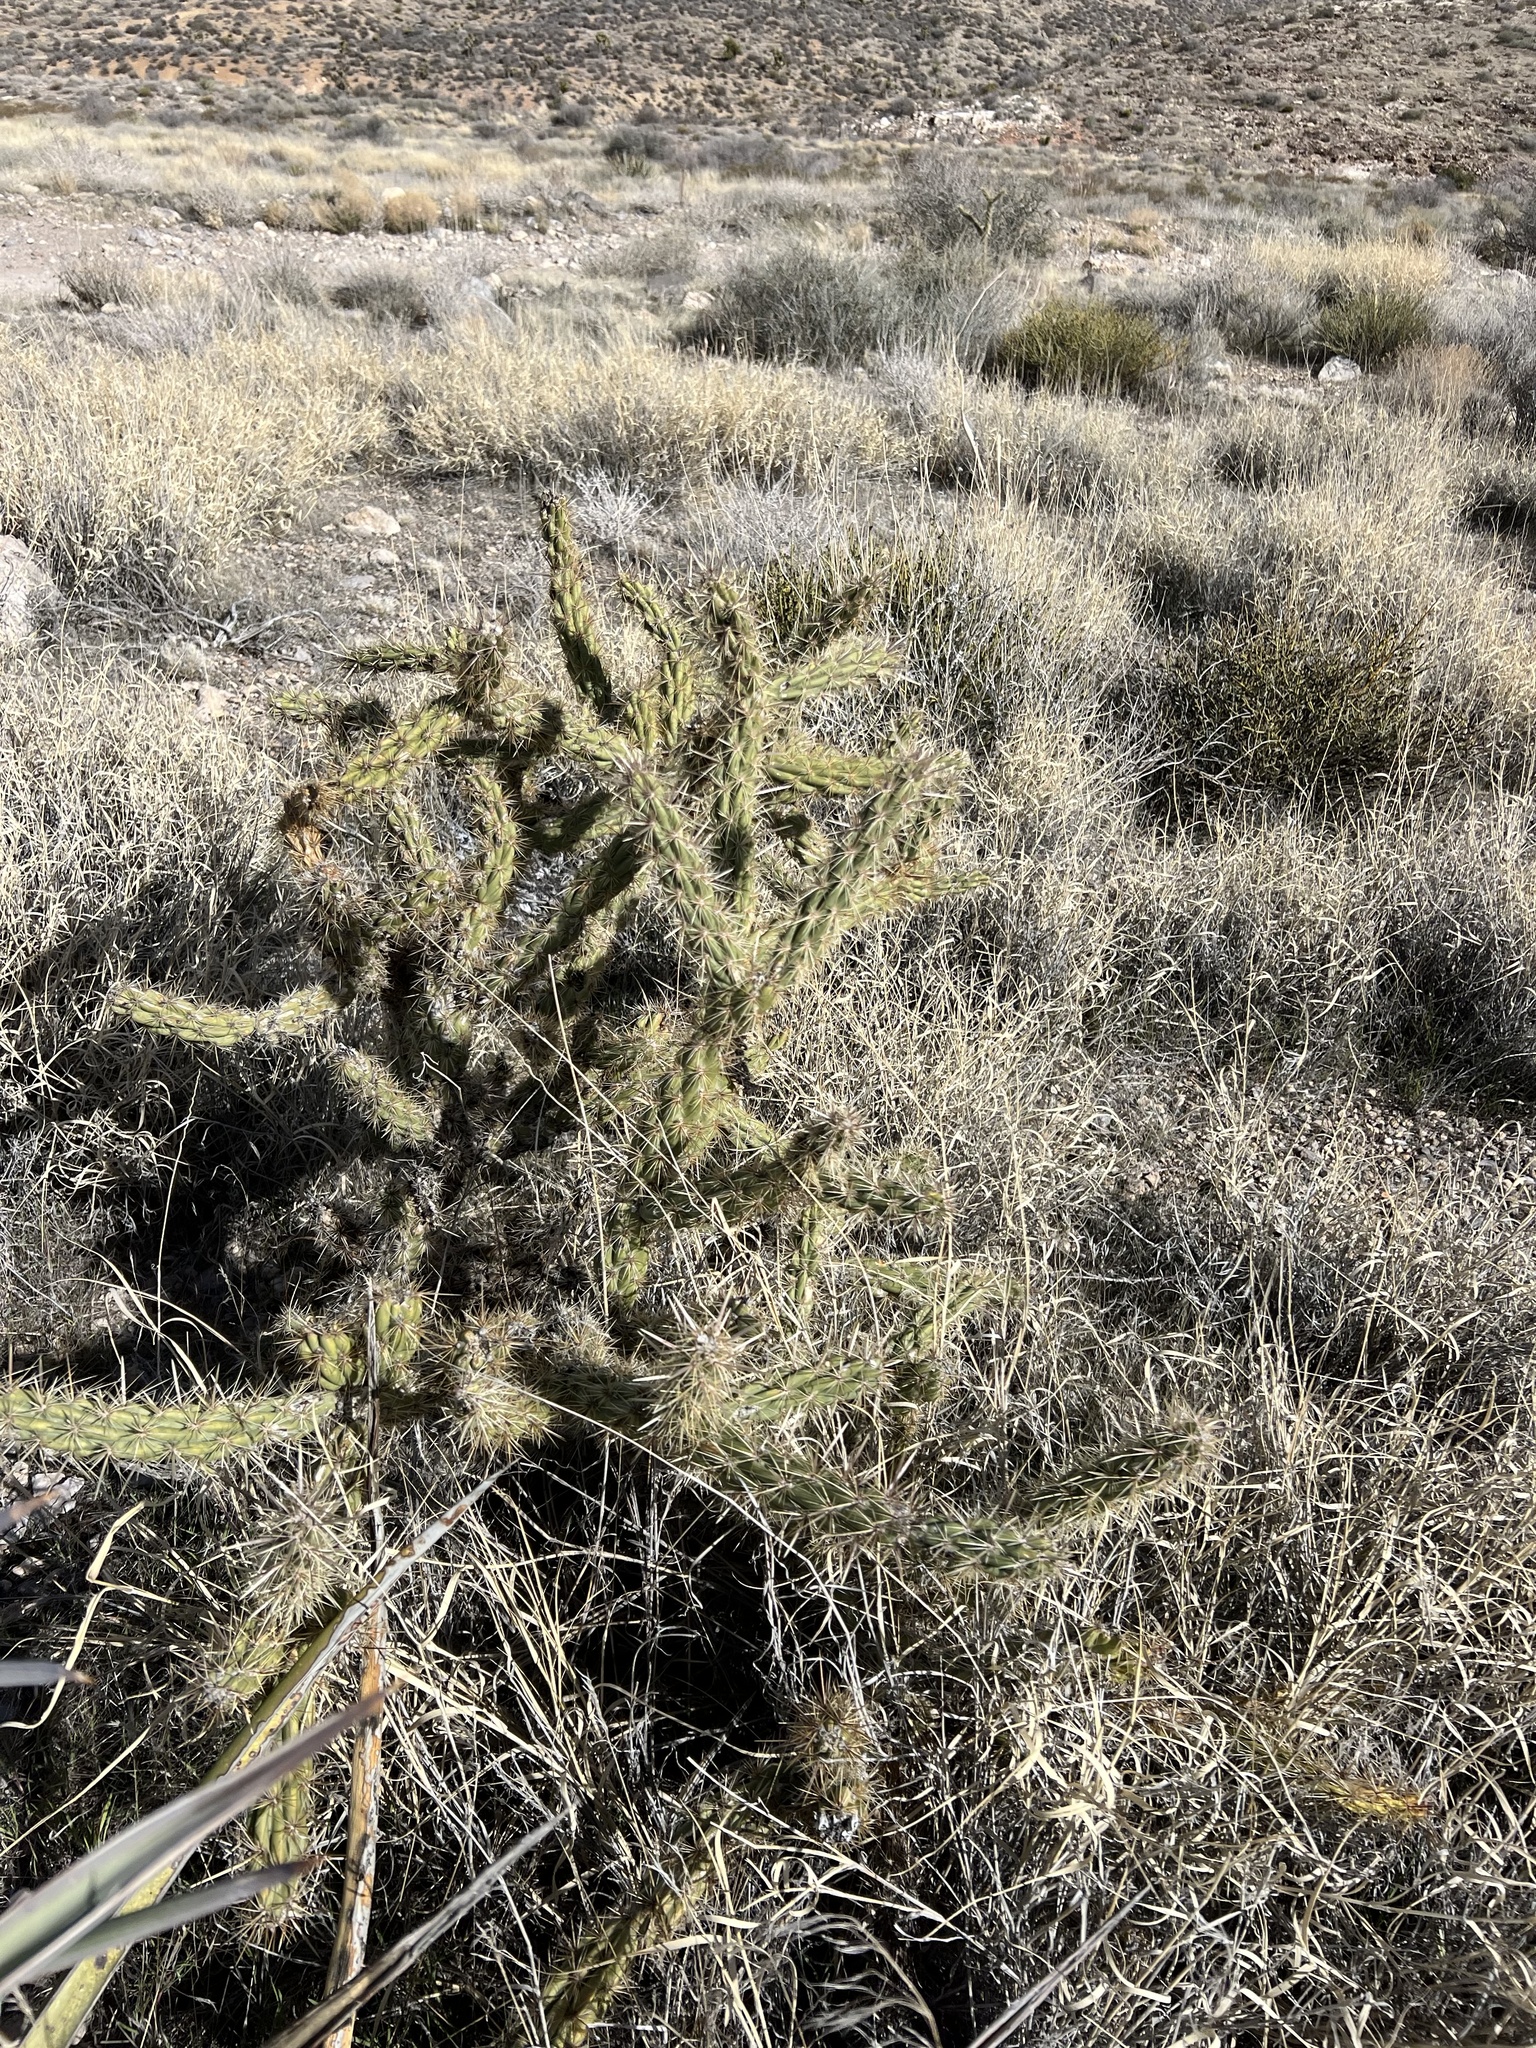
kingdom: Plantae
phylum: Tracheophyta
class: Magnoliopsida
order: Caryophyllales
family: Cactaceae
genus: Cylindropuntia
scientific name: Cylindropuntia acanthocarpa
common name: Buckhorn cholla
